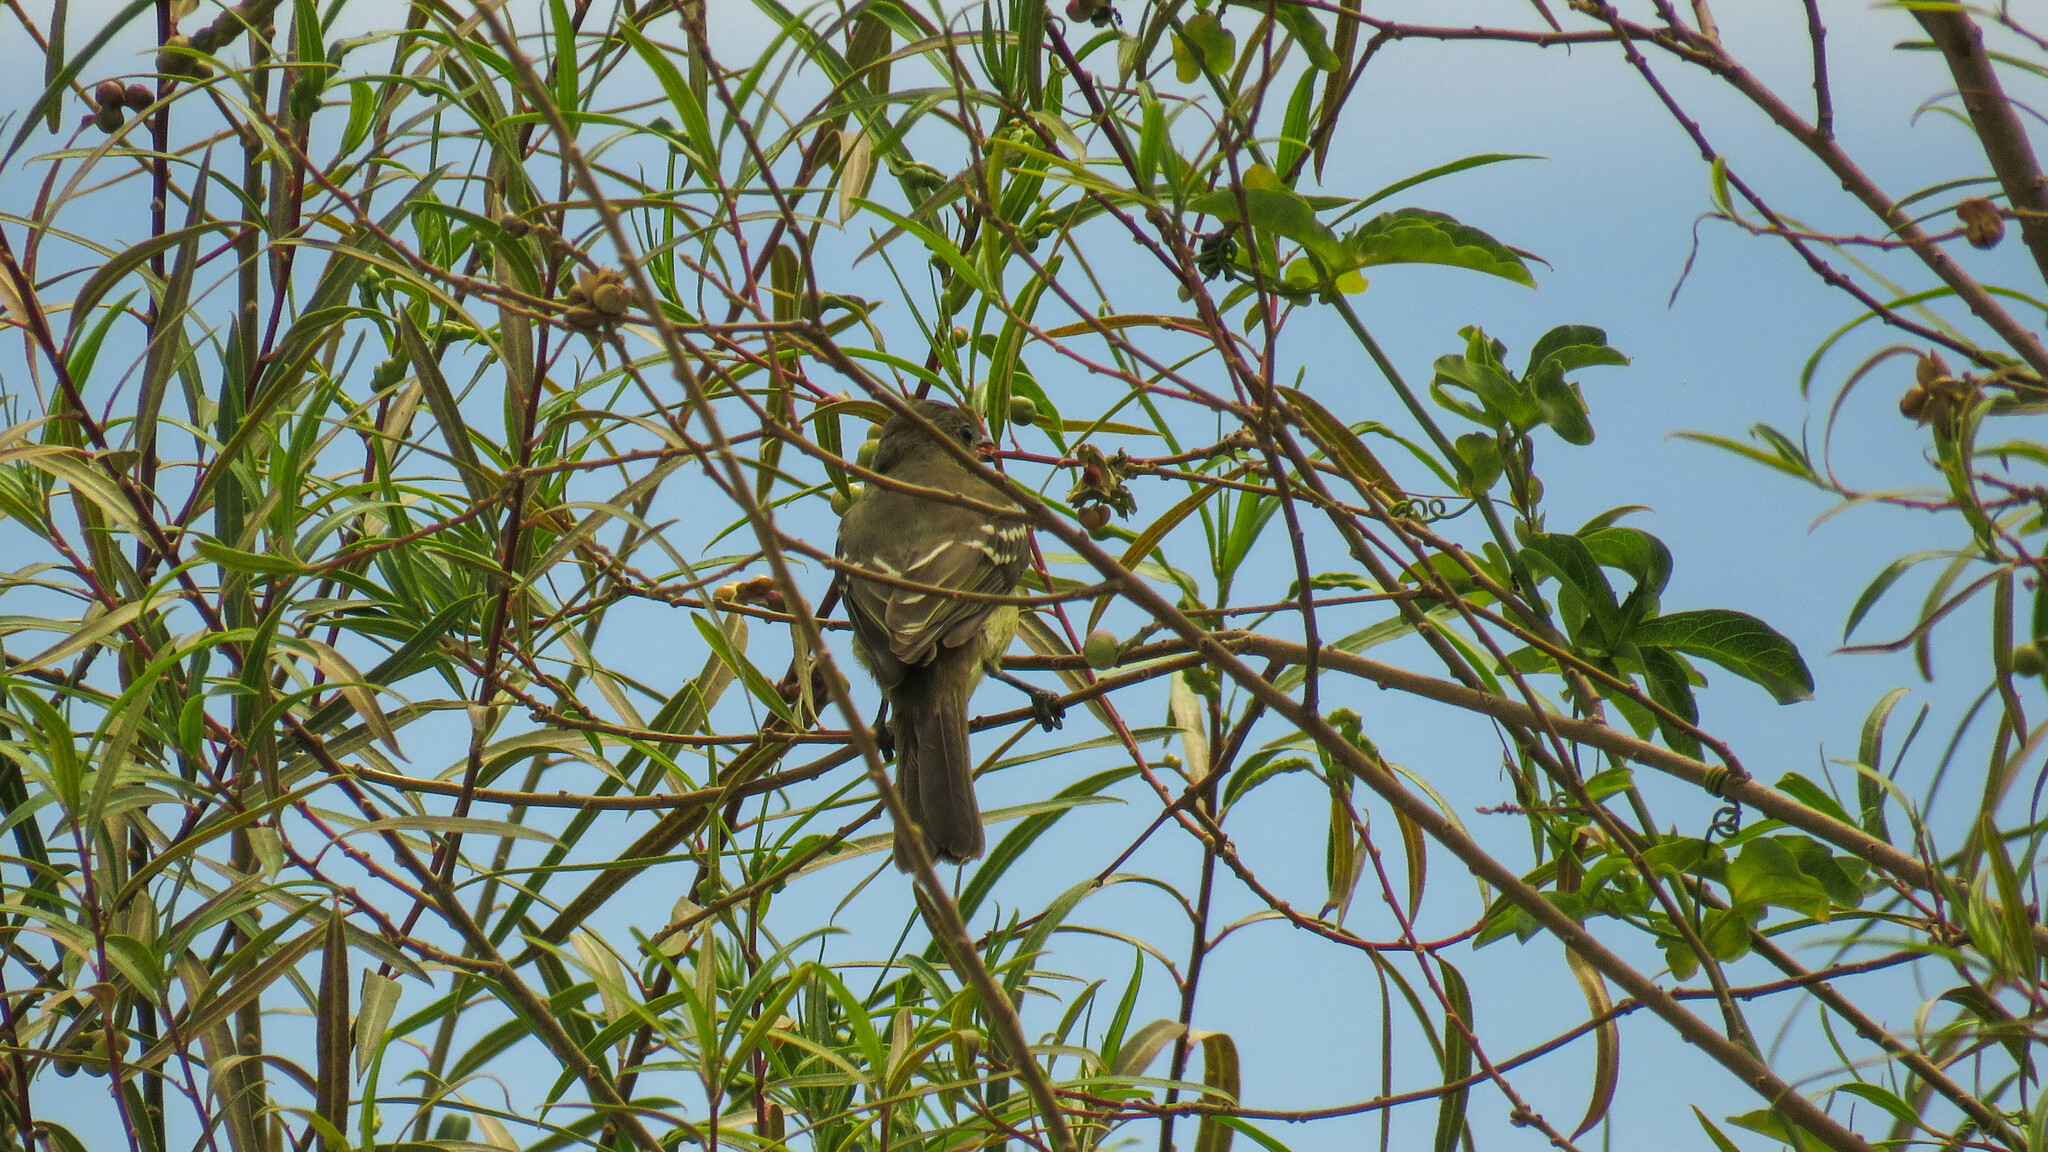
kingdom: Animalia
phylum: Chordata
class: Aves
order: Passeriformes
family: Tyrannidae
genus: Elaenia
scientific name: Elaenia spectabilis
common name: Large elaenia
